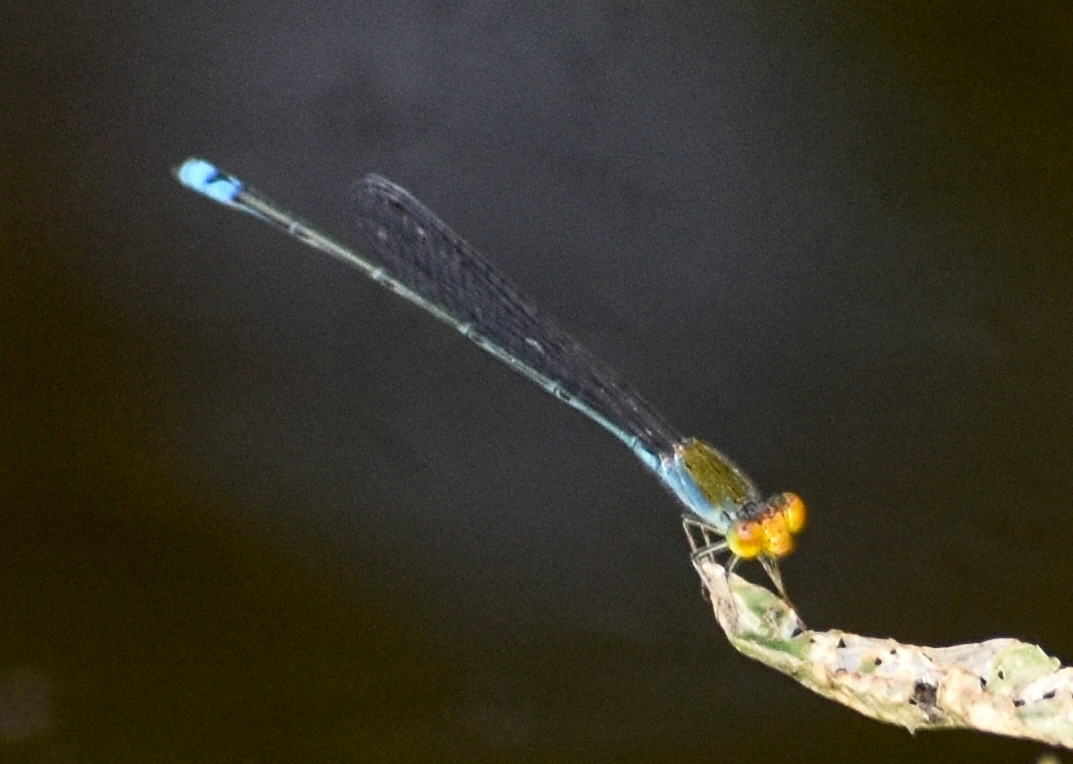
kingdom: Animalia
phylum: Arthropoda
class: Insecta
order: Odonata
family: Coenagrionidae
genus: Pseudagrion
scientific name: Pseudagrion rubriceps
